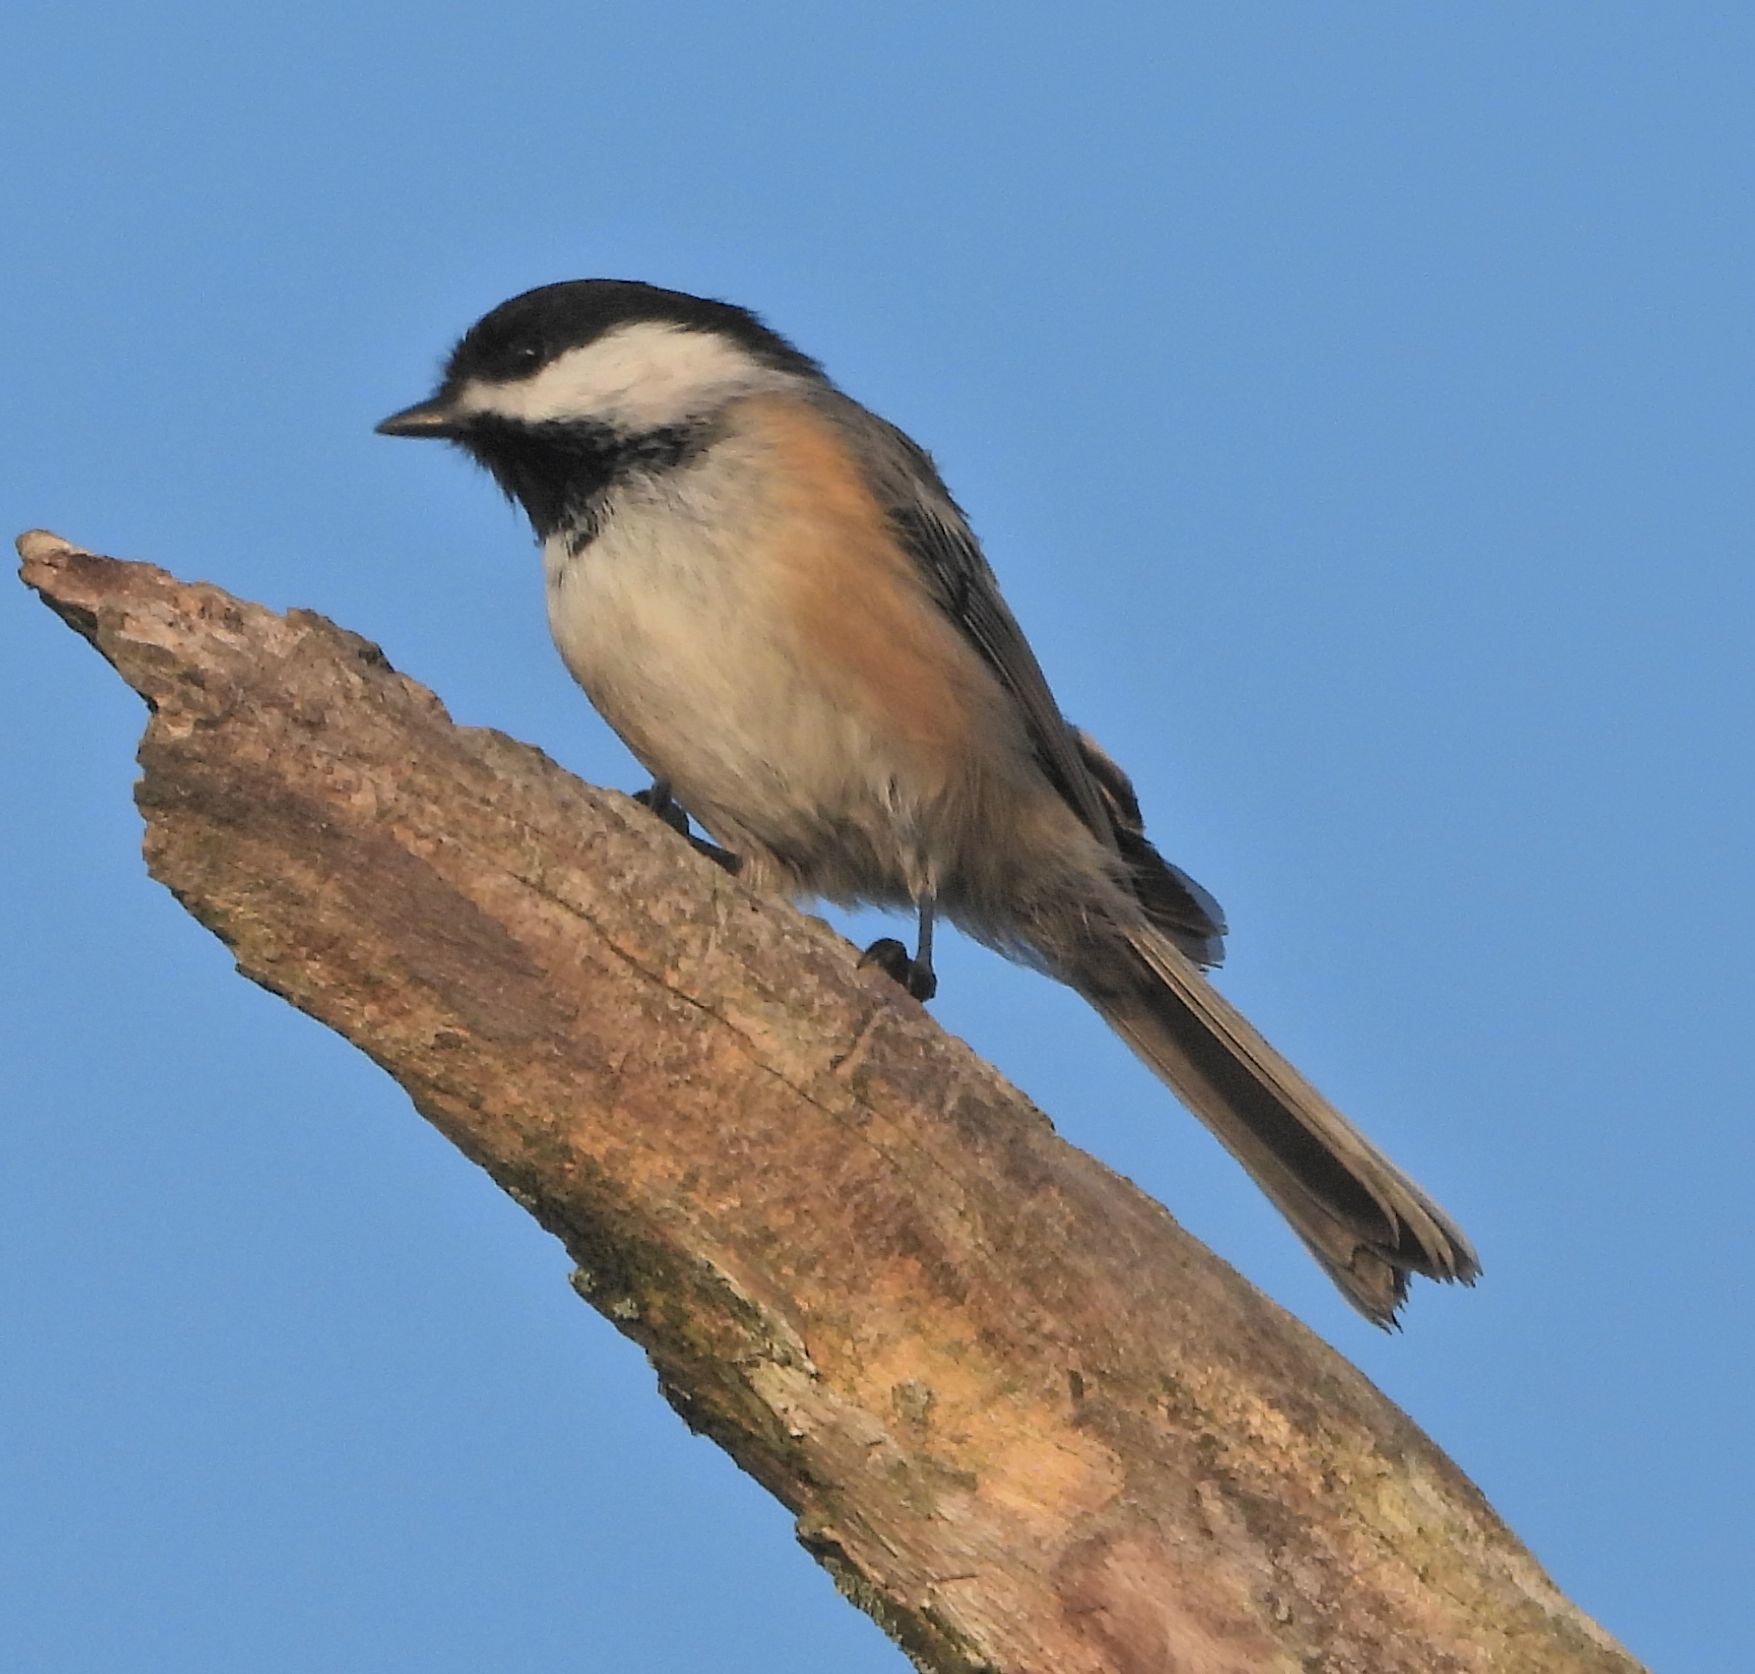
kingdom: Animalia
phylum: Chordata
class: Aves
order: Passeriformes
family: Paridae
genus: Poecile
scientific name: Poecile atricapillus
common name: Black-capped chickadee
